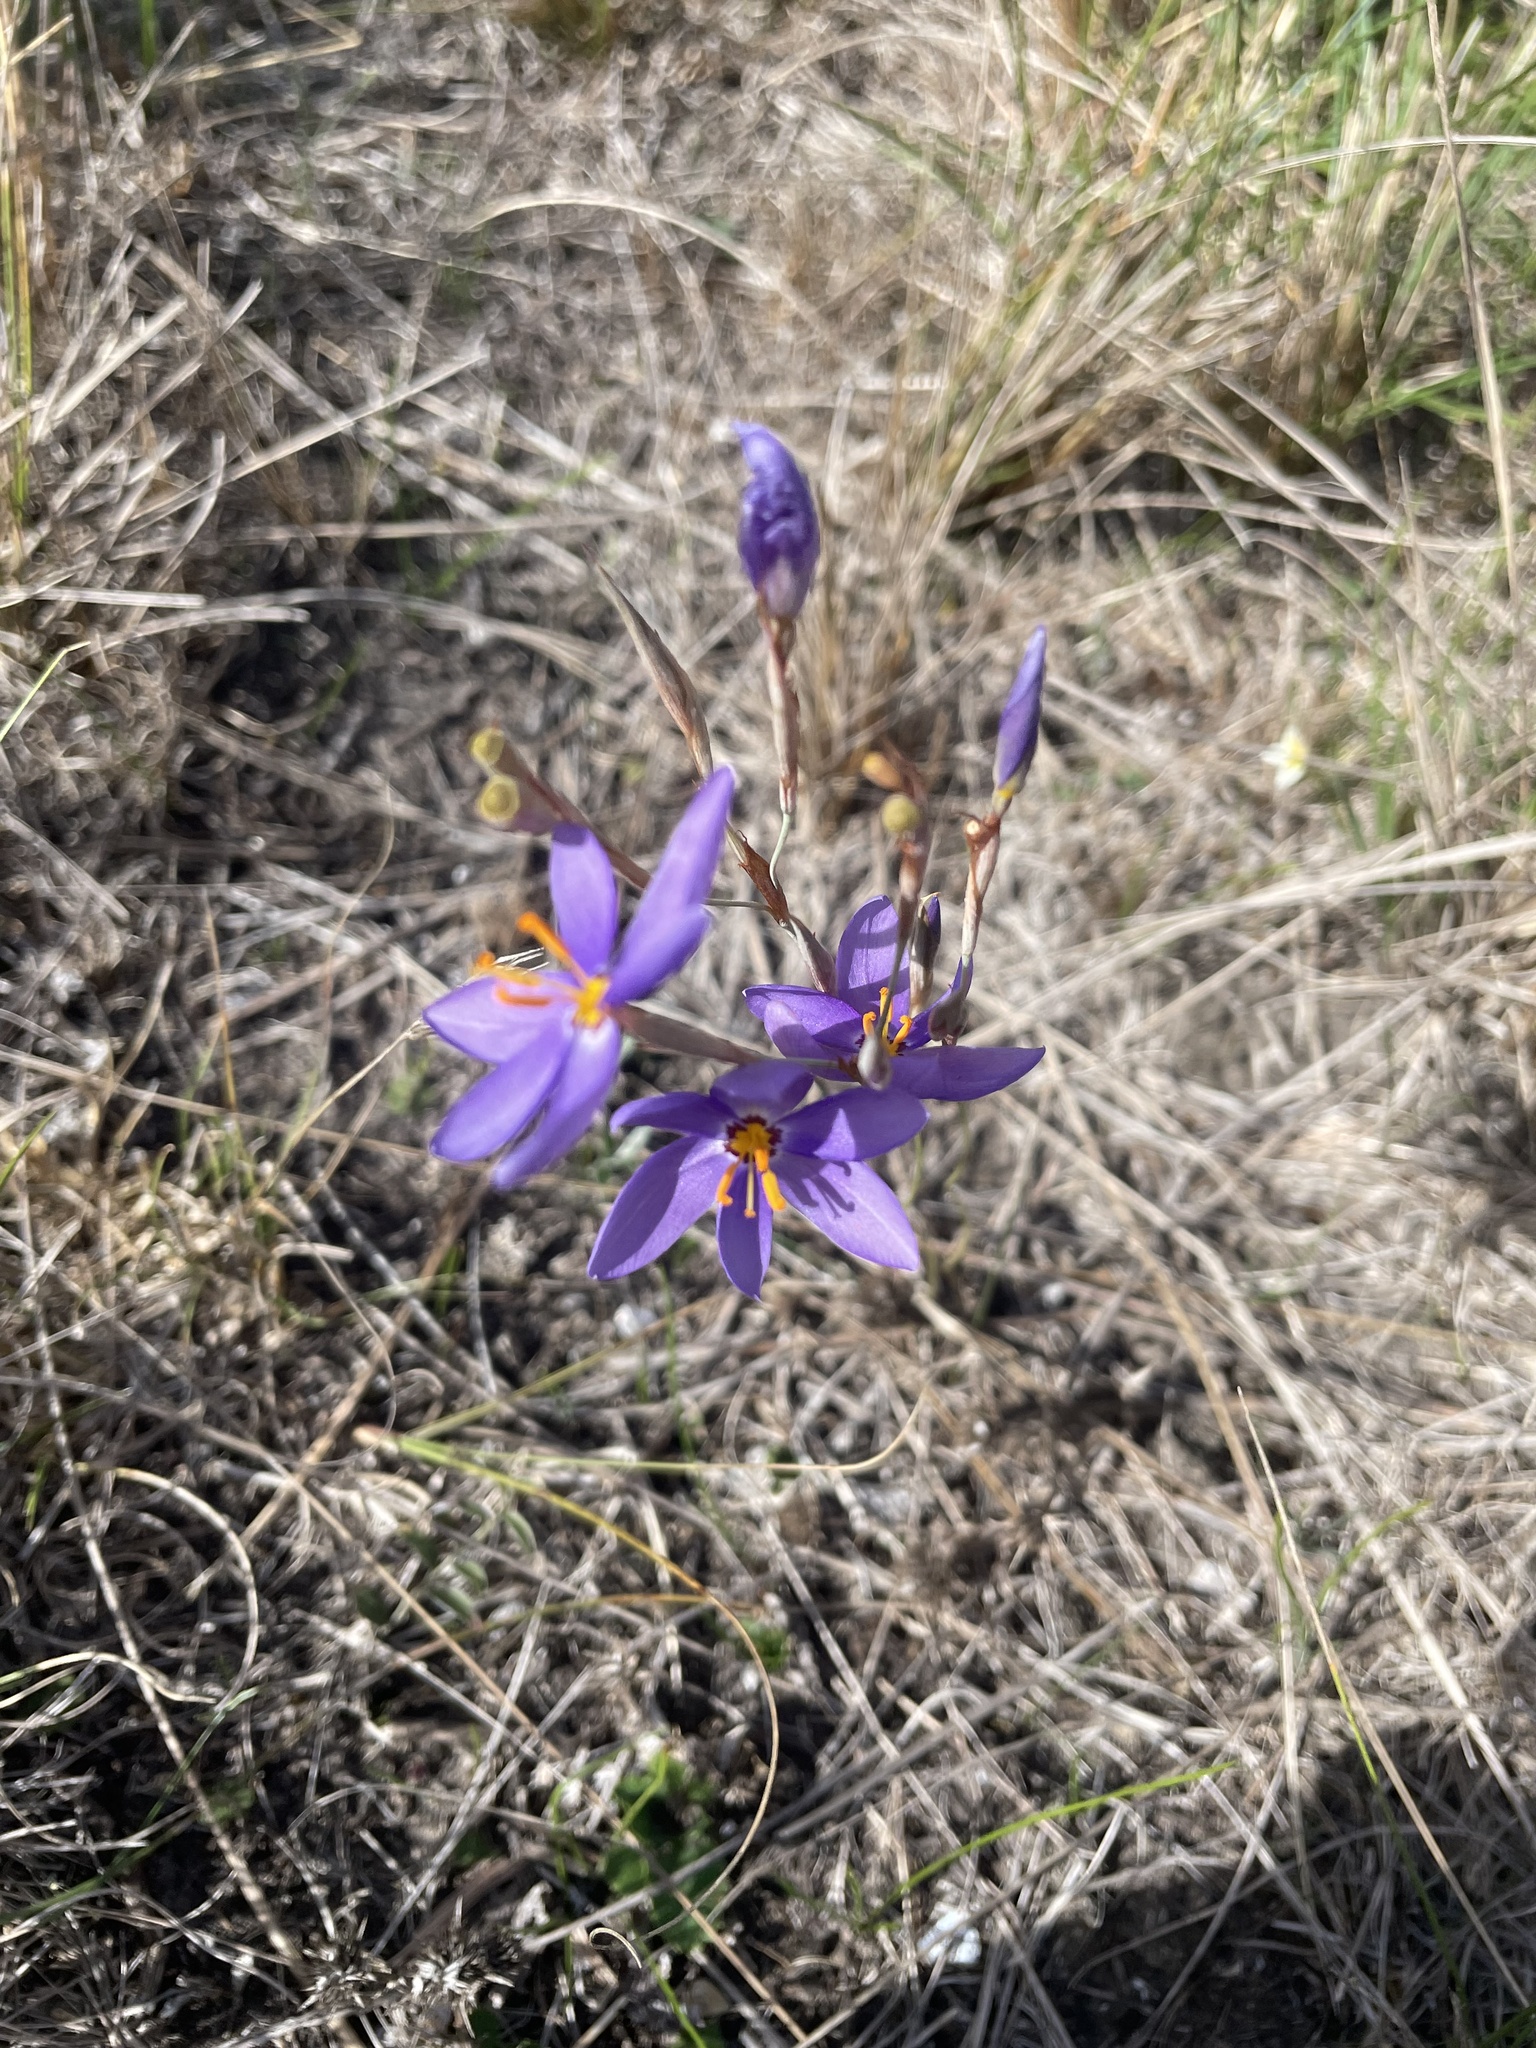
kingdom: Plantae
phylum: Tracheophyta
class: Liliopsida
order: Asparagales
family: Iridaceae
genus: Calydorea
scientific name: Calydorea nuda
